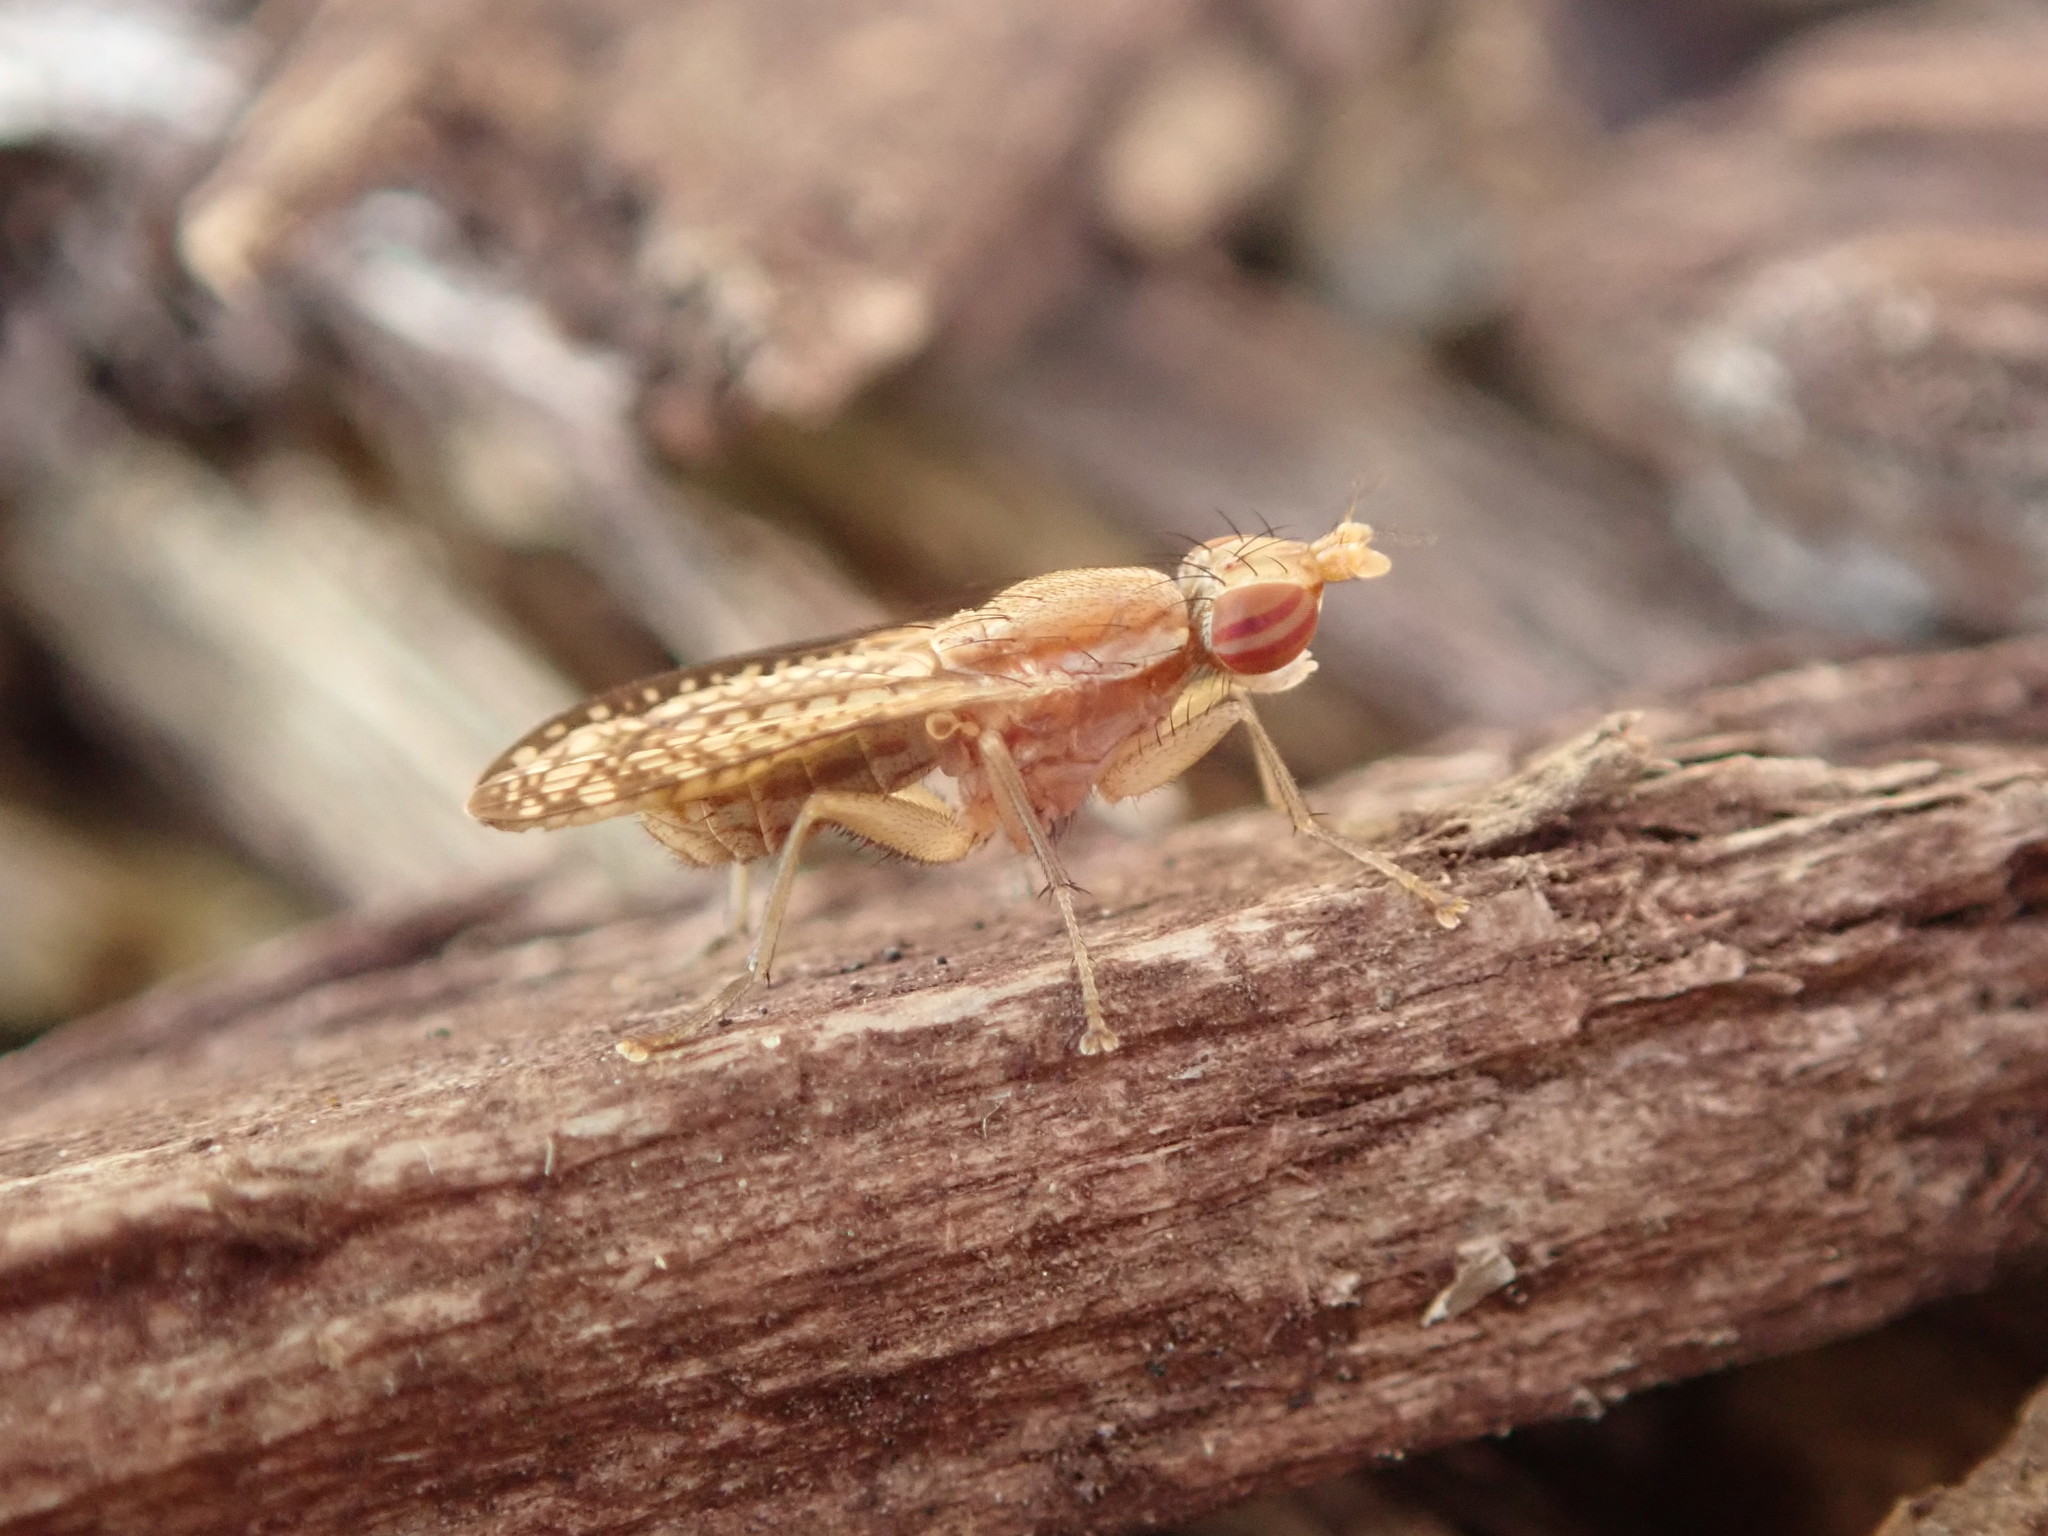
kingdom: Animalia
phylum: Arthropoda
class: Insecta
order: Diptera
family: Sciomyzidae
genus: Trypetoptera
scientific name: Trypetoptera canadensis
